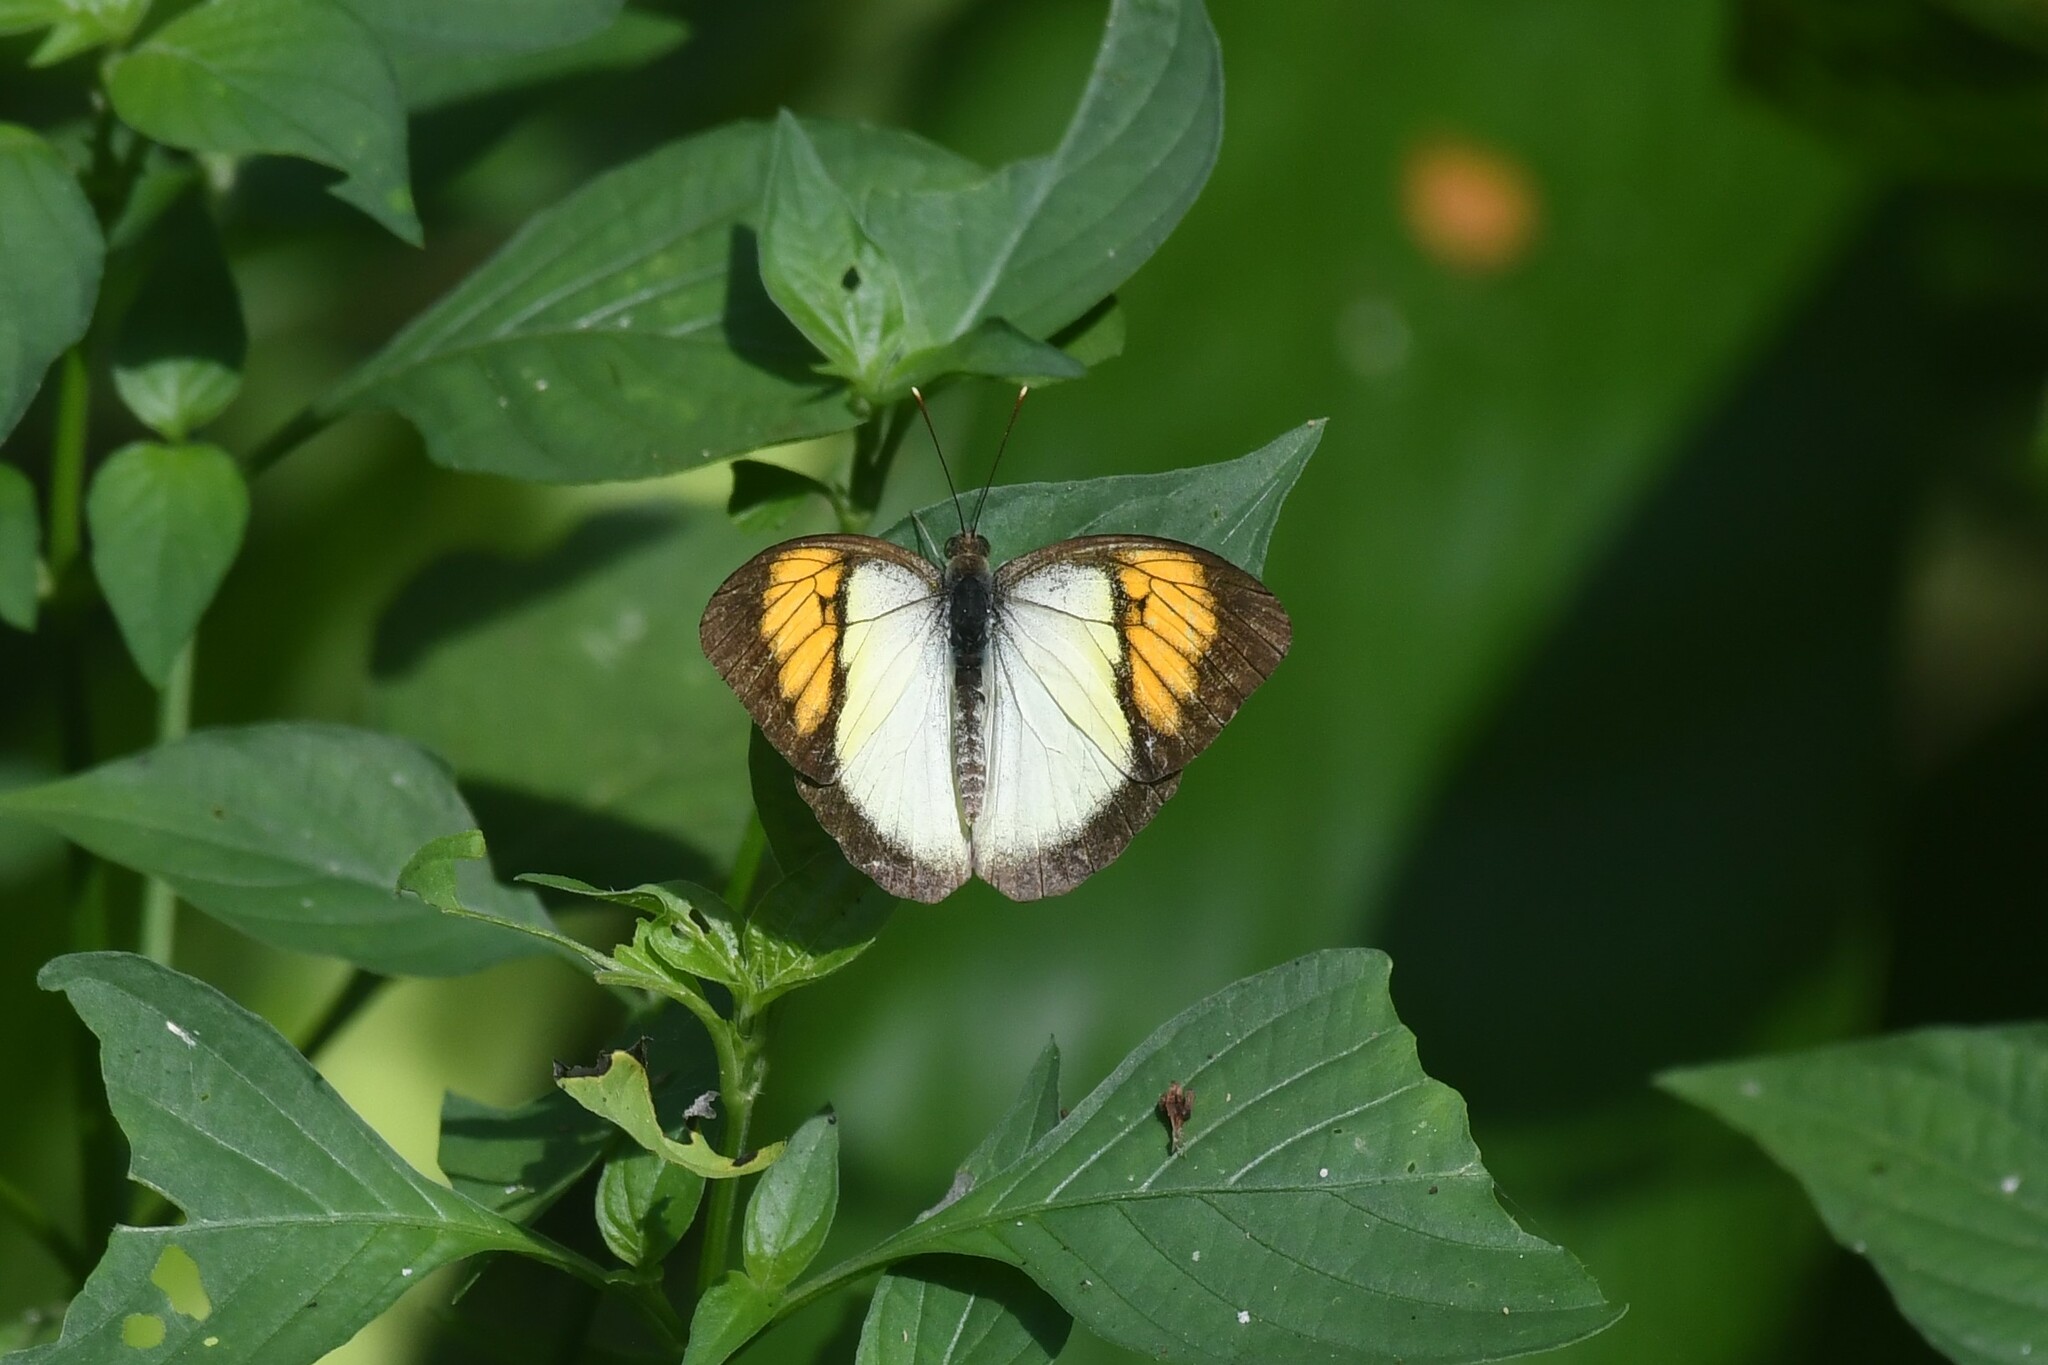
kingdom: Animalia
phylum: Arthropoda
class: Insecta
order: Lepidoptera
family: Pieridae
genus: Ixias
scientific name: Ixias pyrene
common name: Yellow orange tip
